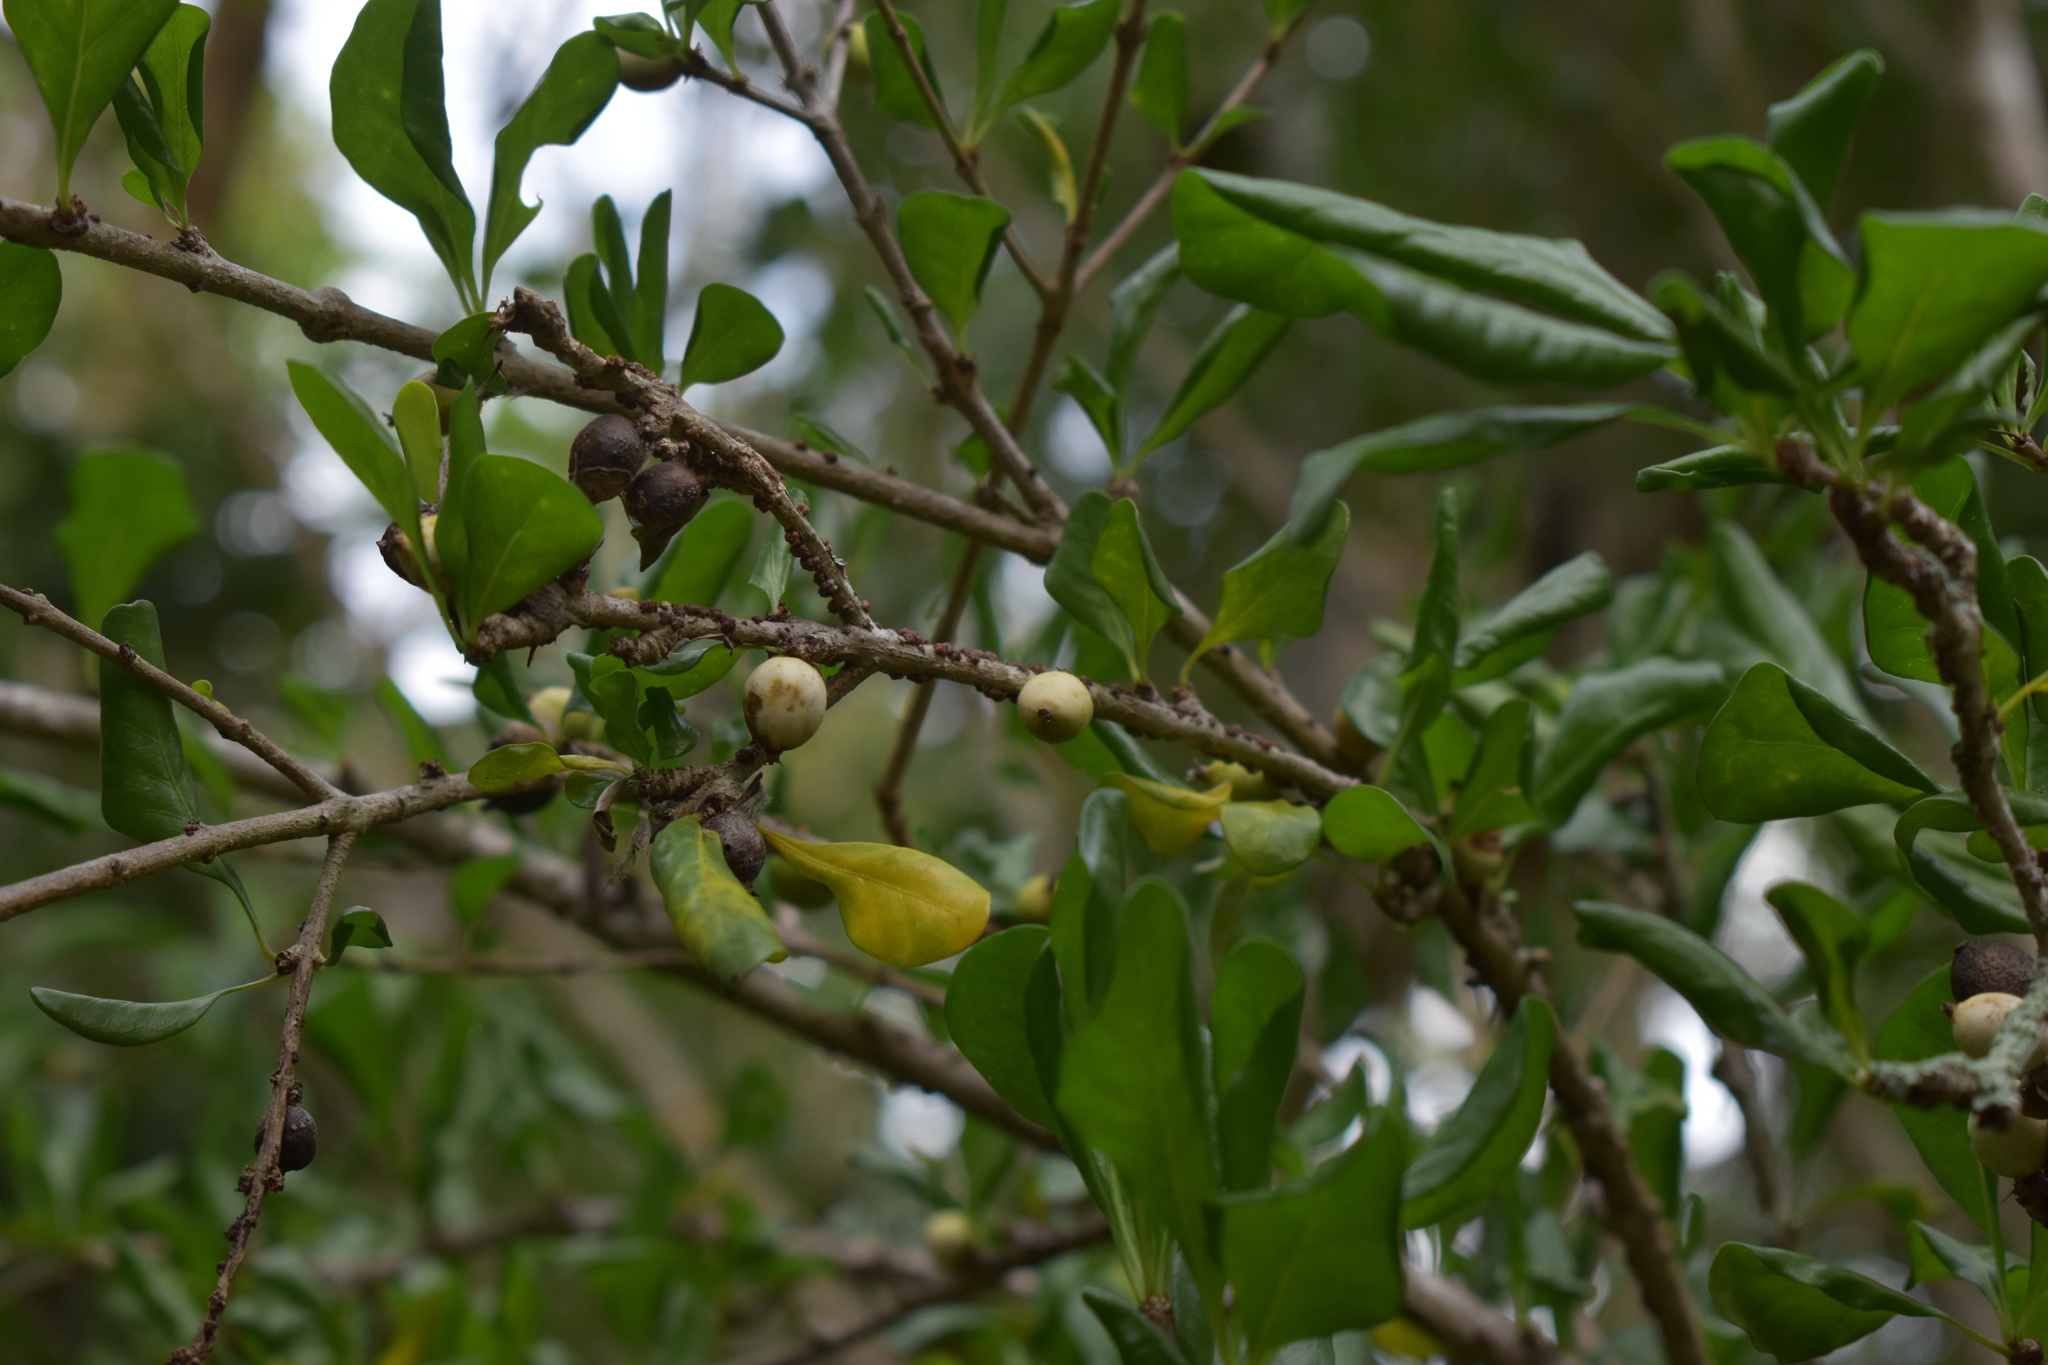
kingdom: Plantae
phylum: Tracheophyta
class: Magnoliopsida
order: Gentianales
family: Rubiaceae
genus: Randia
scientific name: Randia aculeata
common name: Inkberry
